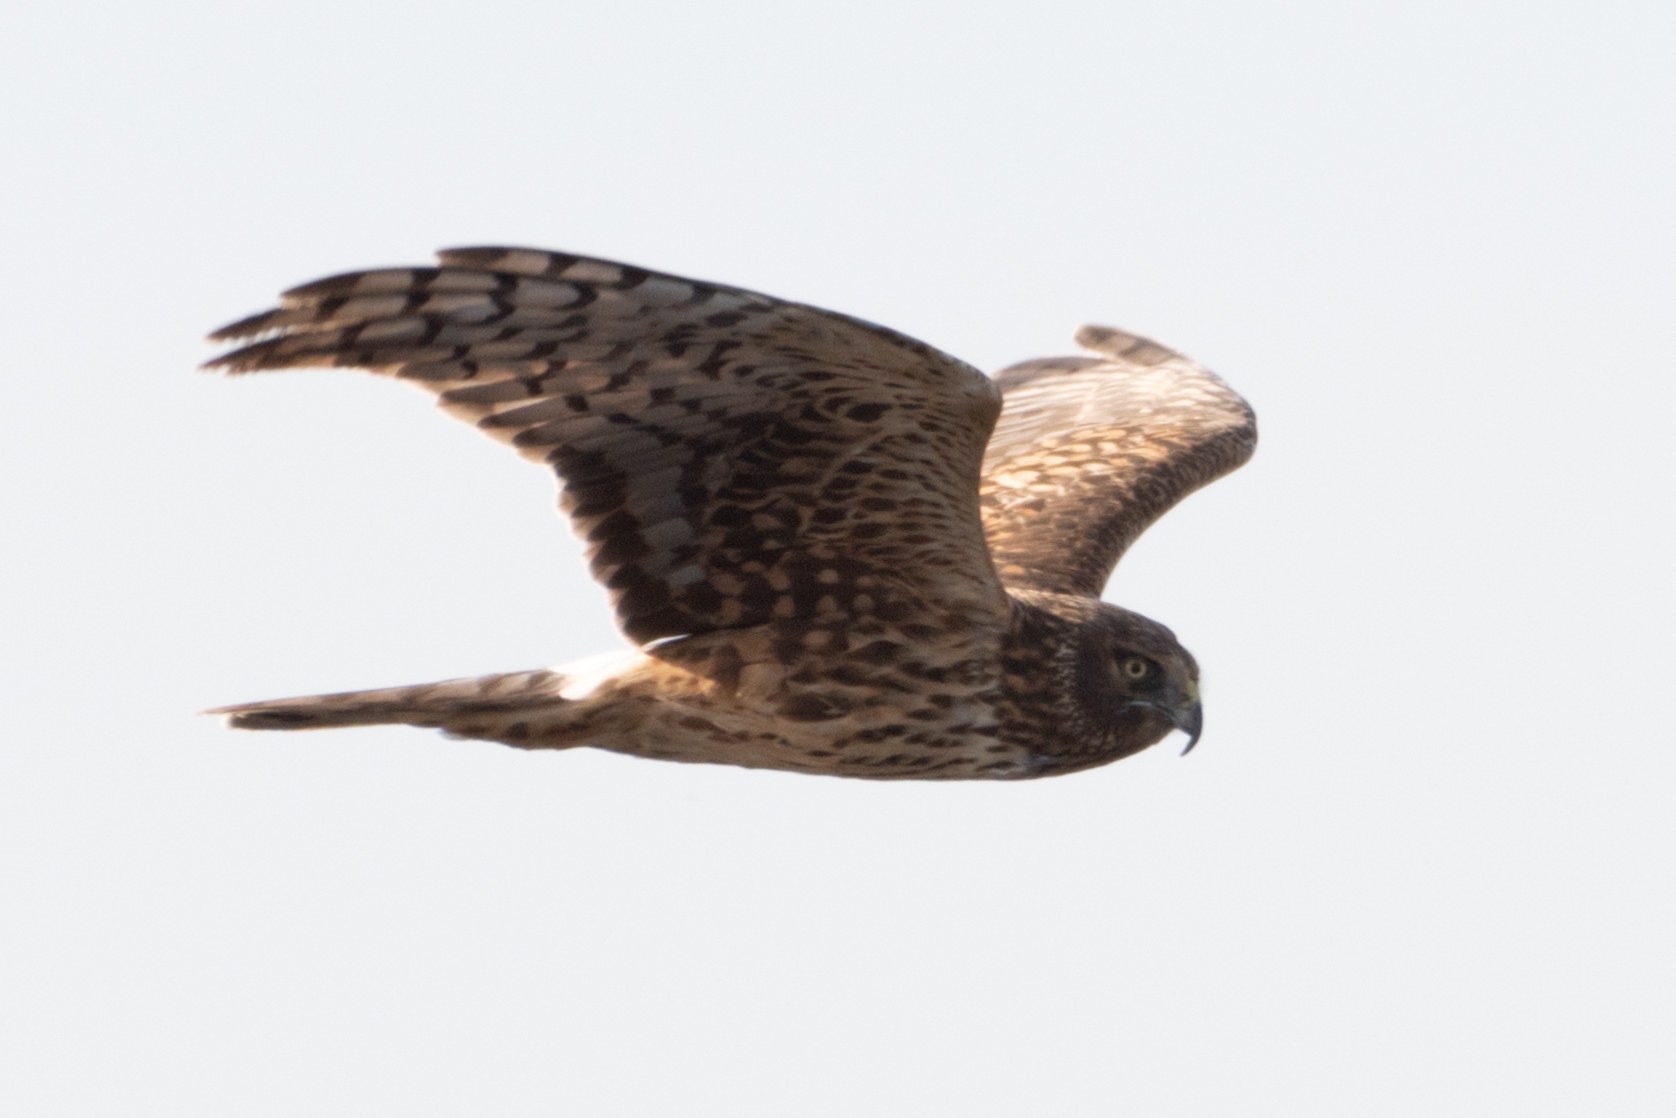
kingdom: Animalia
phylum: Chordata
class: Aves
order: Accipitriformes
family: Accipitridae
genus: Circus
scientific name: Circus cyaneus
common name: Hen harrier
